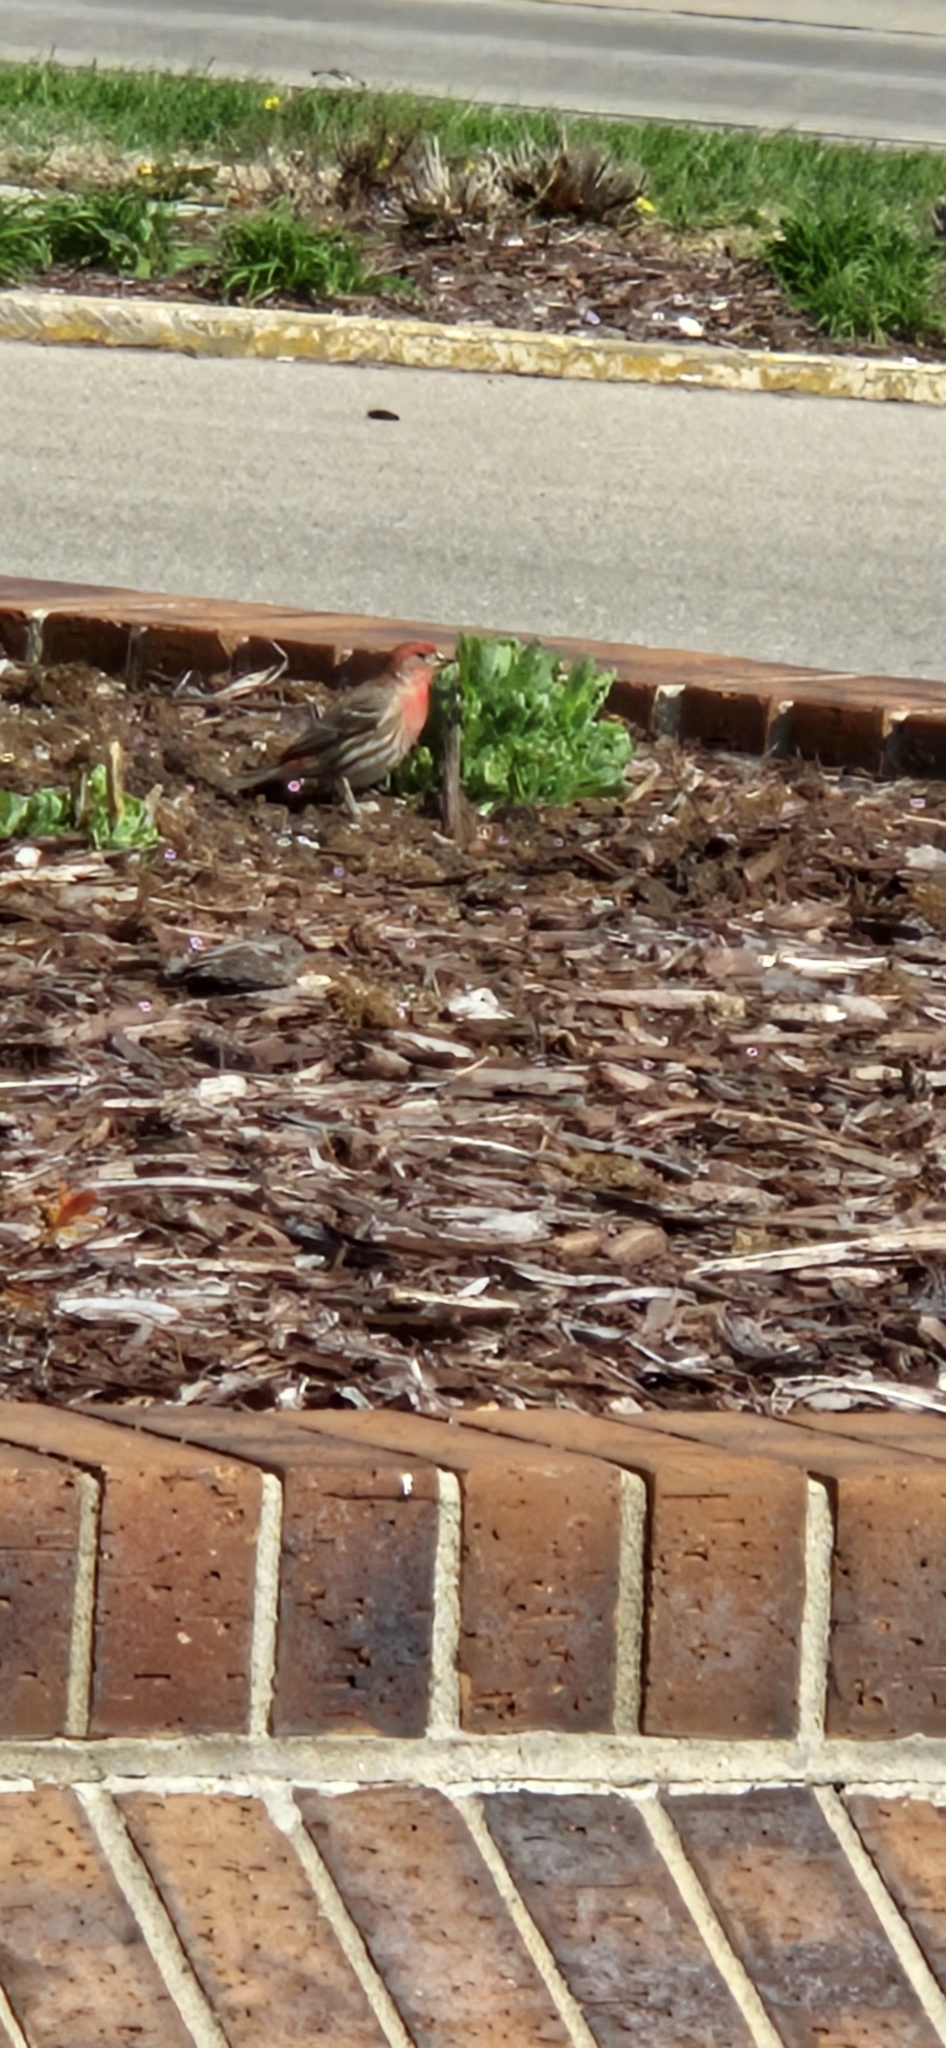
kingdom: Animalia
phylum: Chordata
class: Aves
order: Passeriformes
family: Fringillidae
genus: Haemorhous
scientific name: Haemorhous mexicanus
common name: House finch
